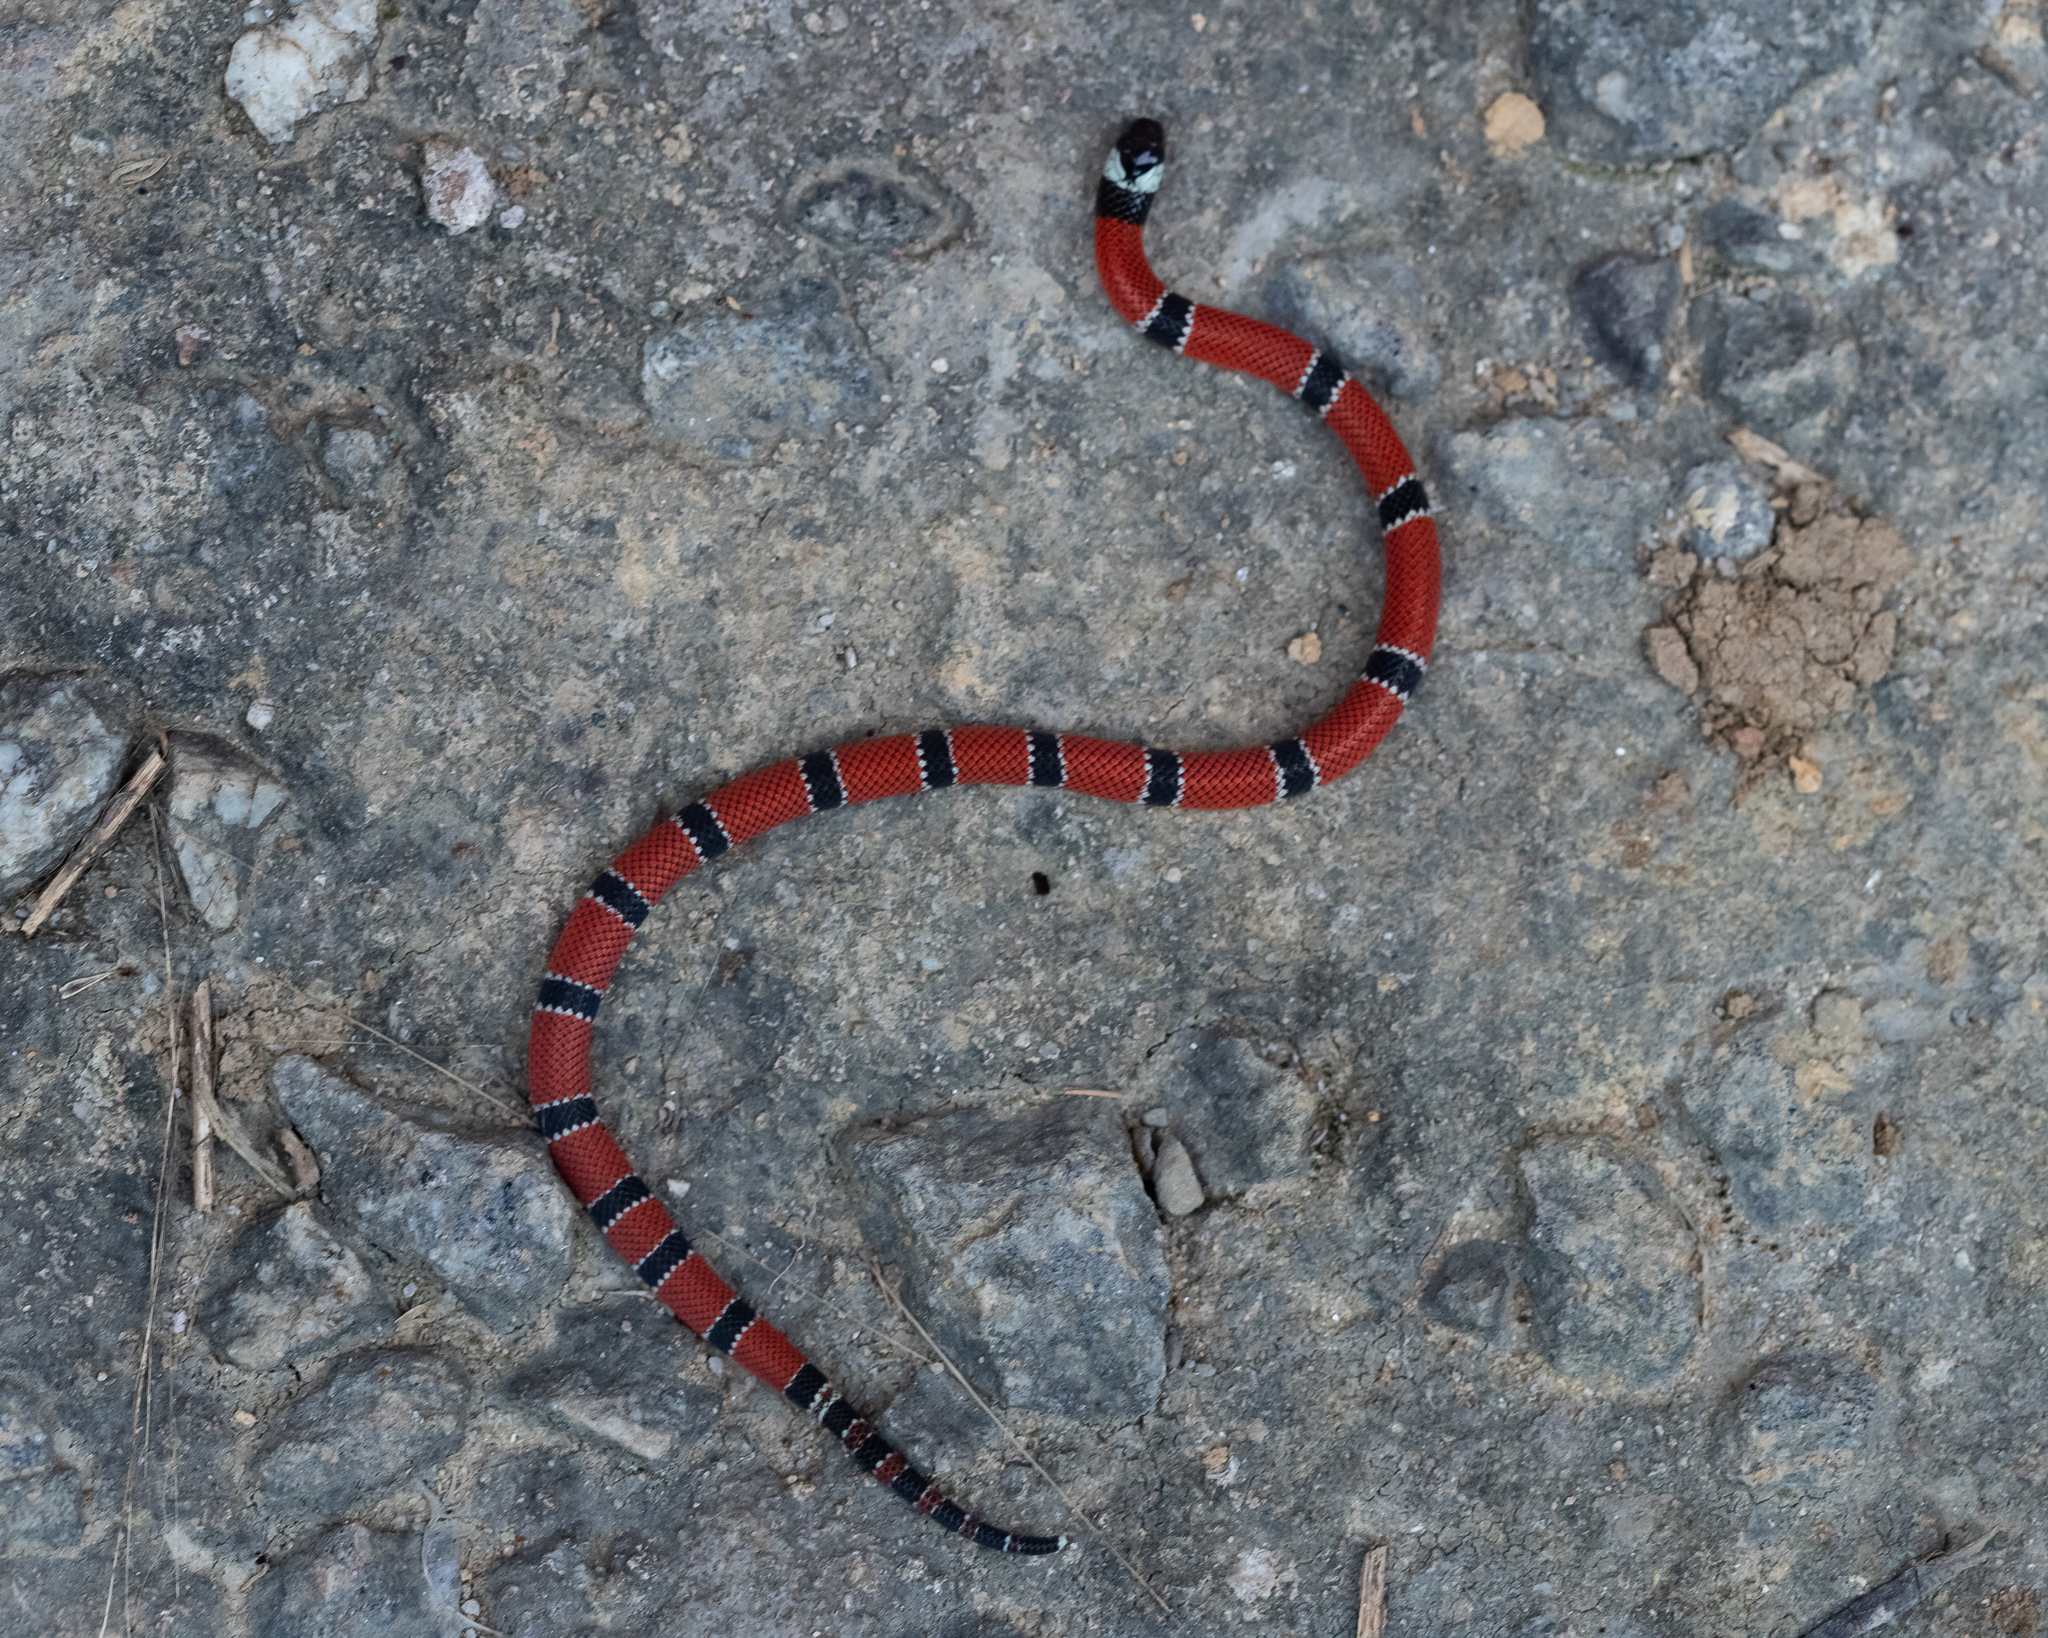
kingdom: Animalia
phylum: Chordata
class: Squamata
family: Elapidae
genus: Micrurus
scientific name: Micrurus corallinus
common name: Painted coral snake
